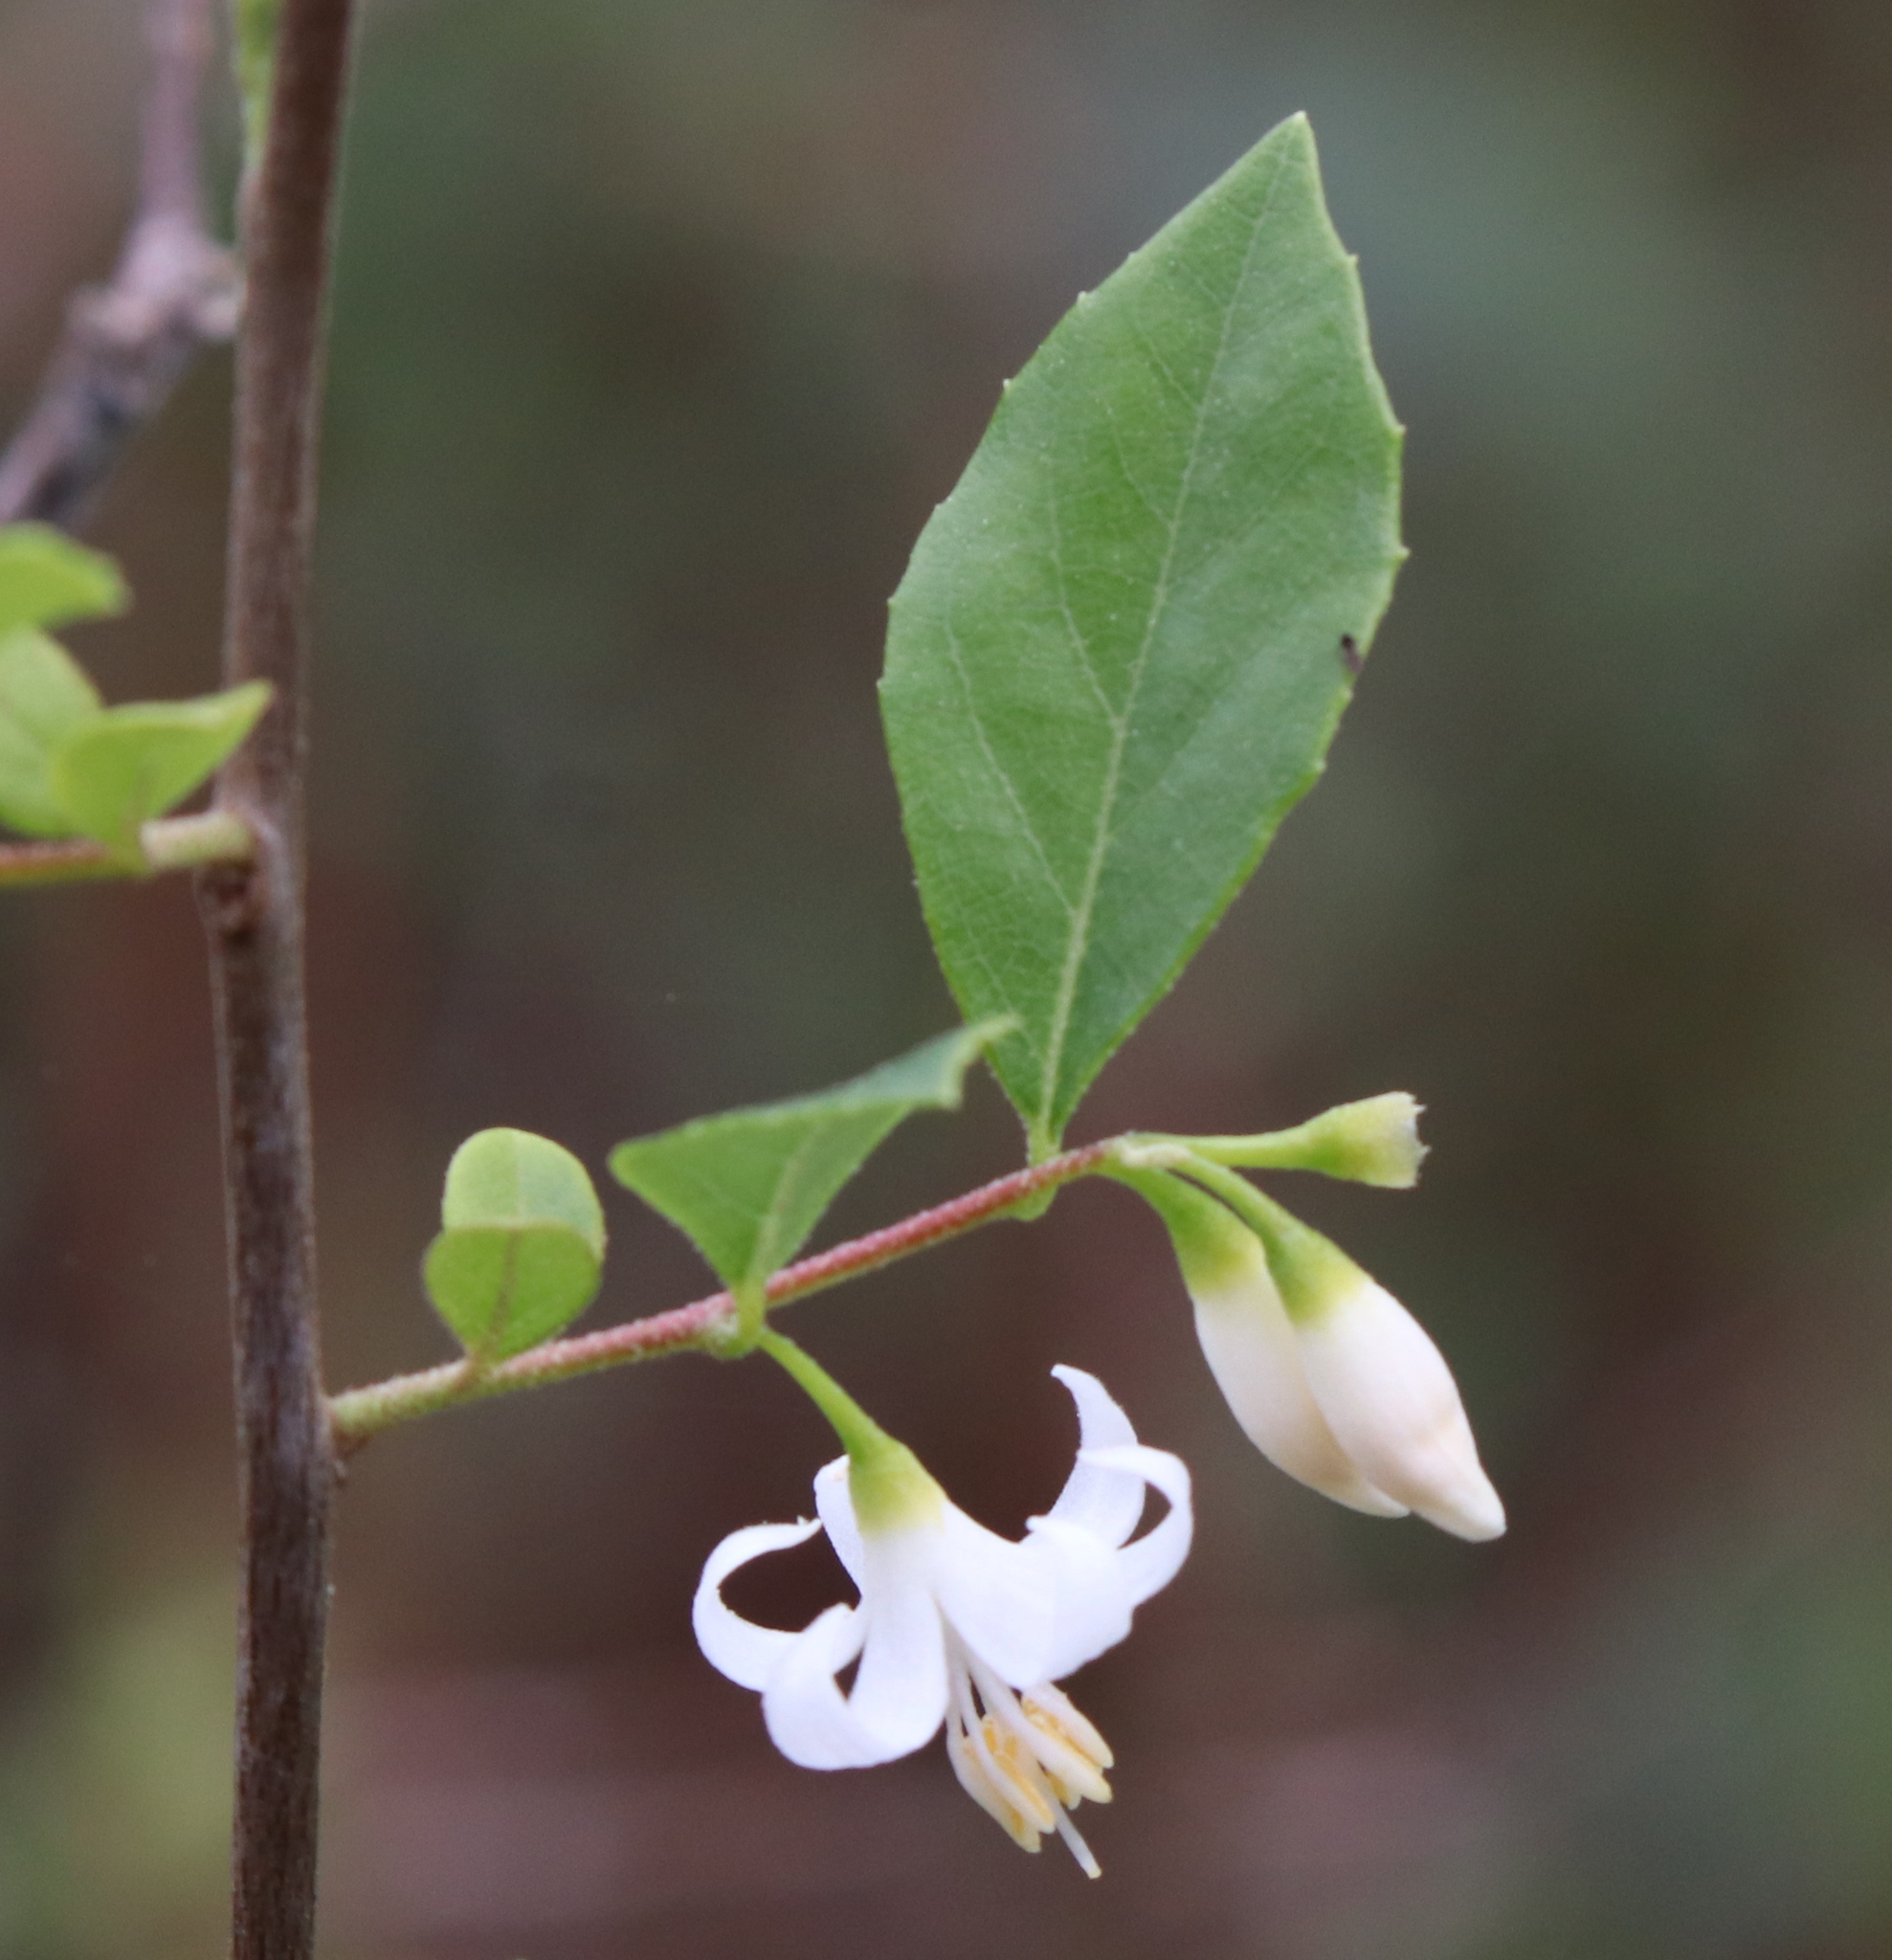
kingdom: Plantae
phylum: Tracheophyta
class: Magnoliopsida
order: Ericales
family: Styracaceae
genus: Styrax
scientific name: Styrax americanus
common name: American snowbell
